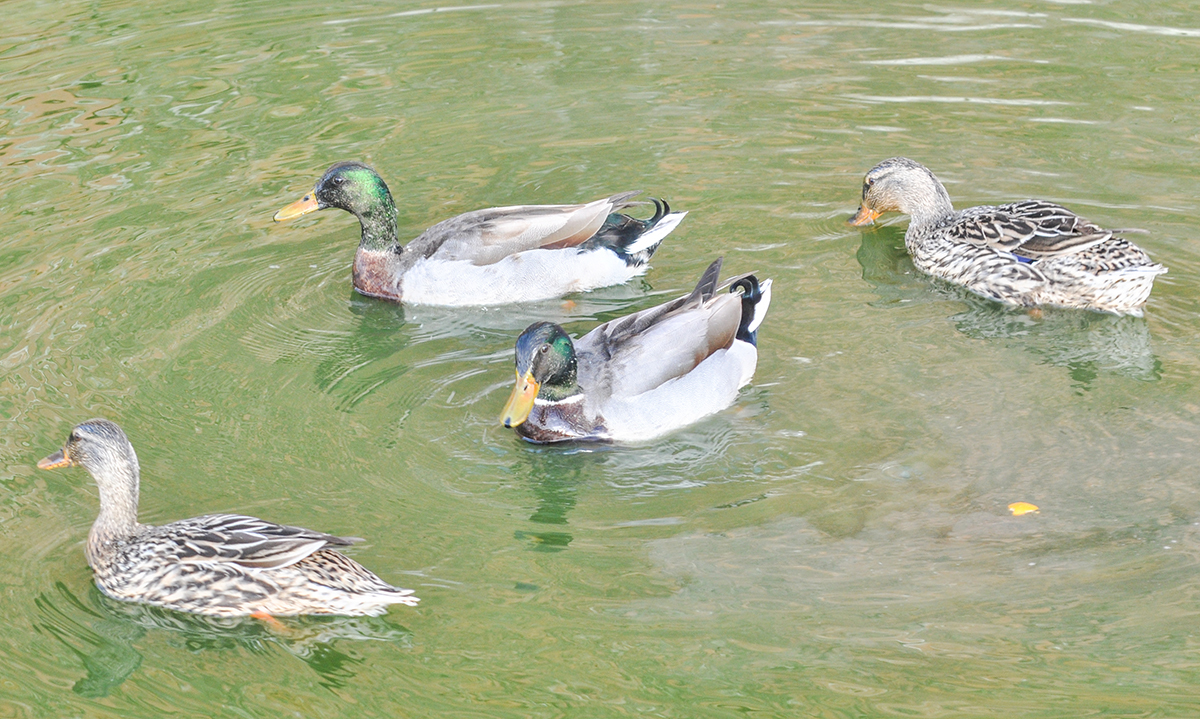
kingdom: Animalia
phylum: Chordata
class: Aves
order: Anseriformes
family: Anatidae
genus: Anas
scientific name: Anas platyrhynchos
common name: Mallard
